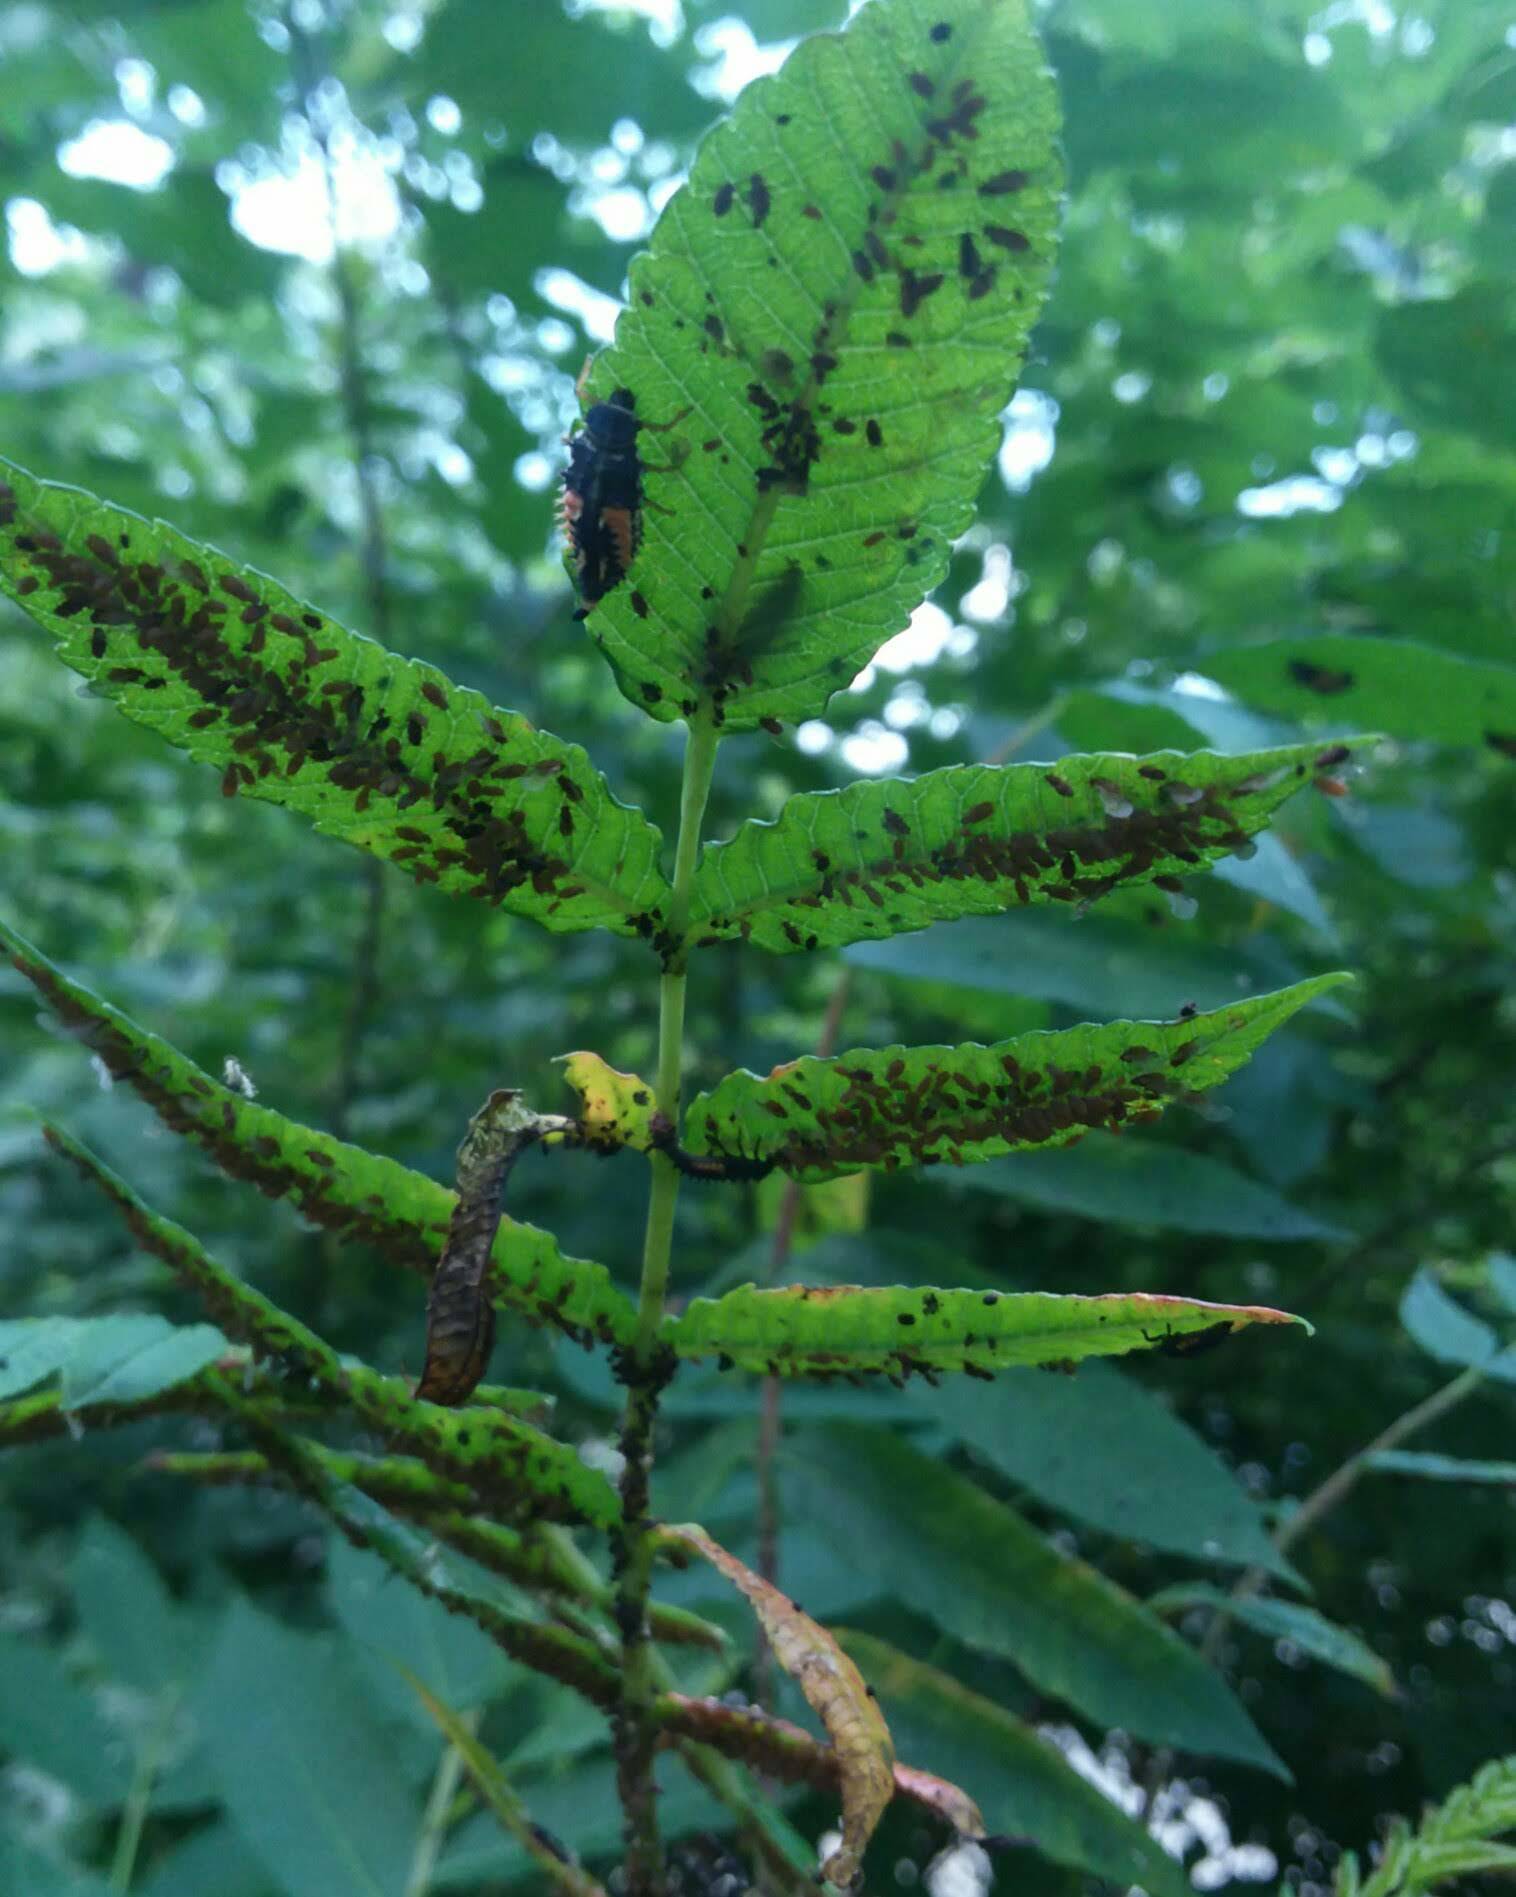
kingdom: Animalia
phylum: Arthropoda
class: Insecta
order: Coleoptera
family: Coccinellidae
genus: Harmonia
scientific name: Harmonia axyridis
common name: Harlequin ladybird
